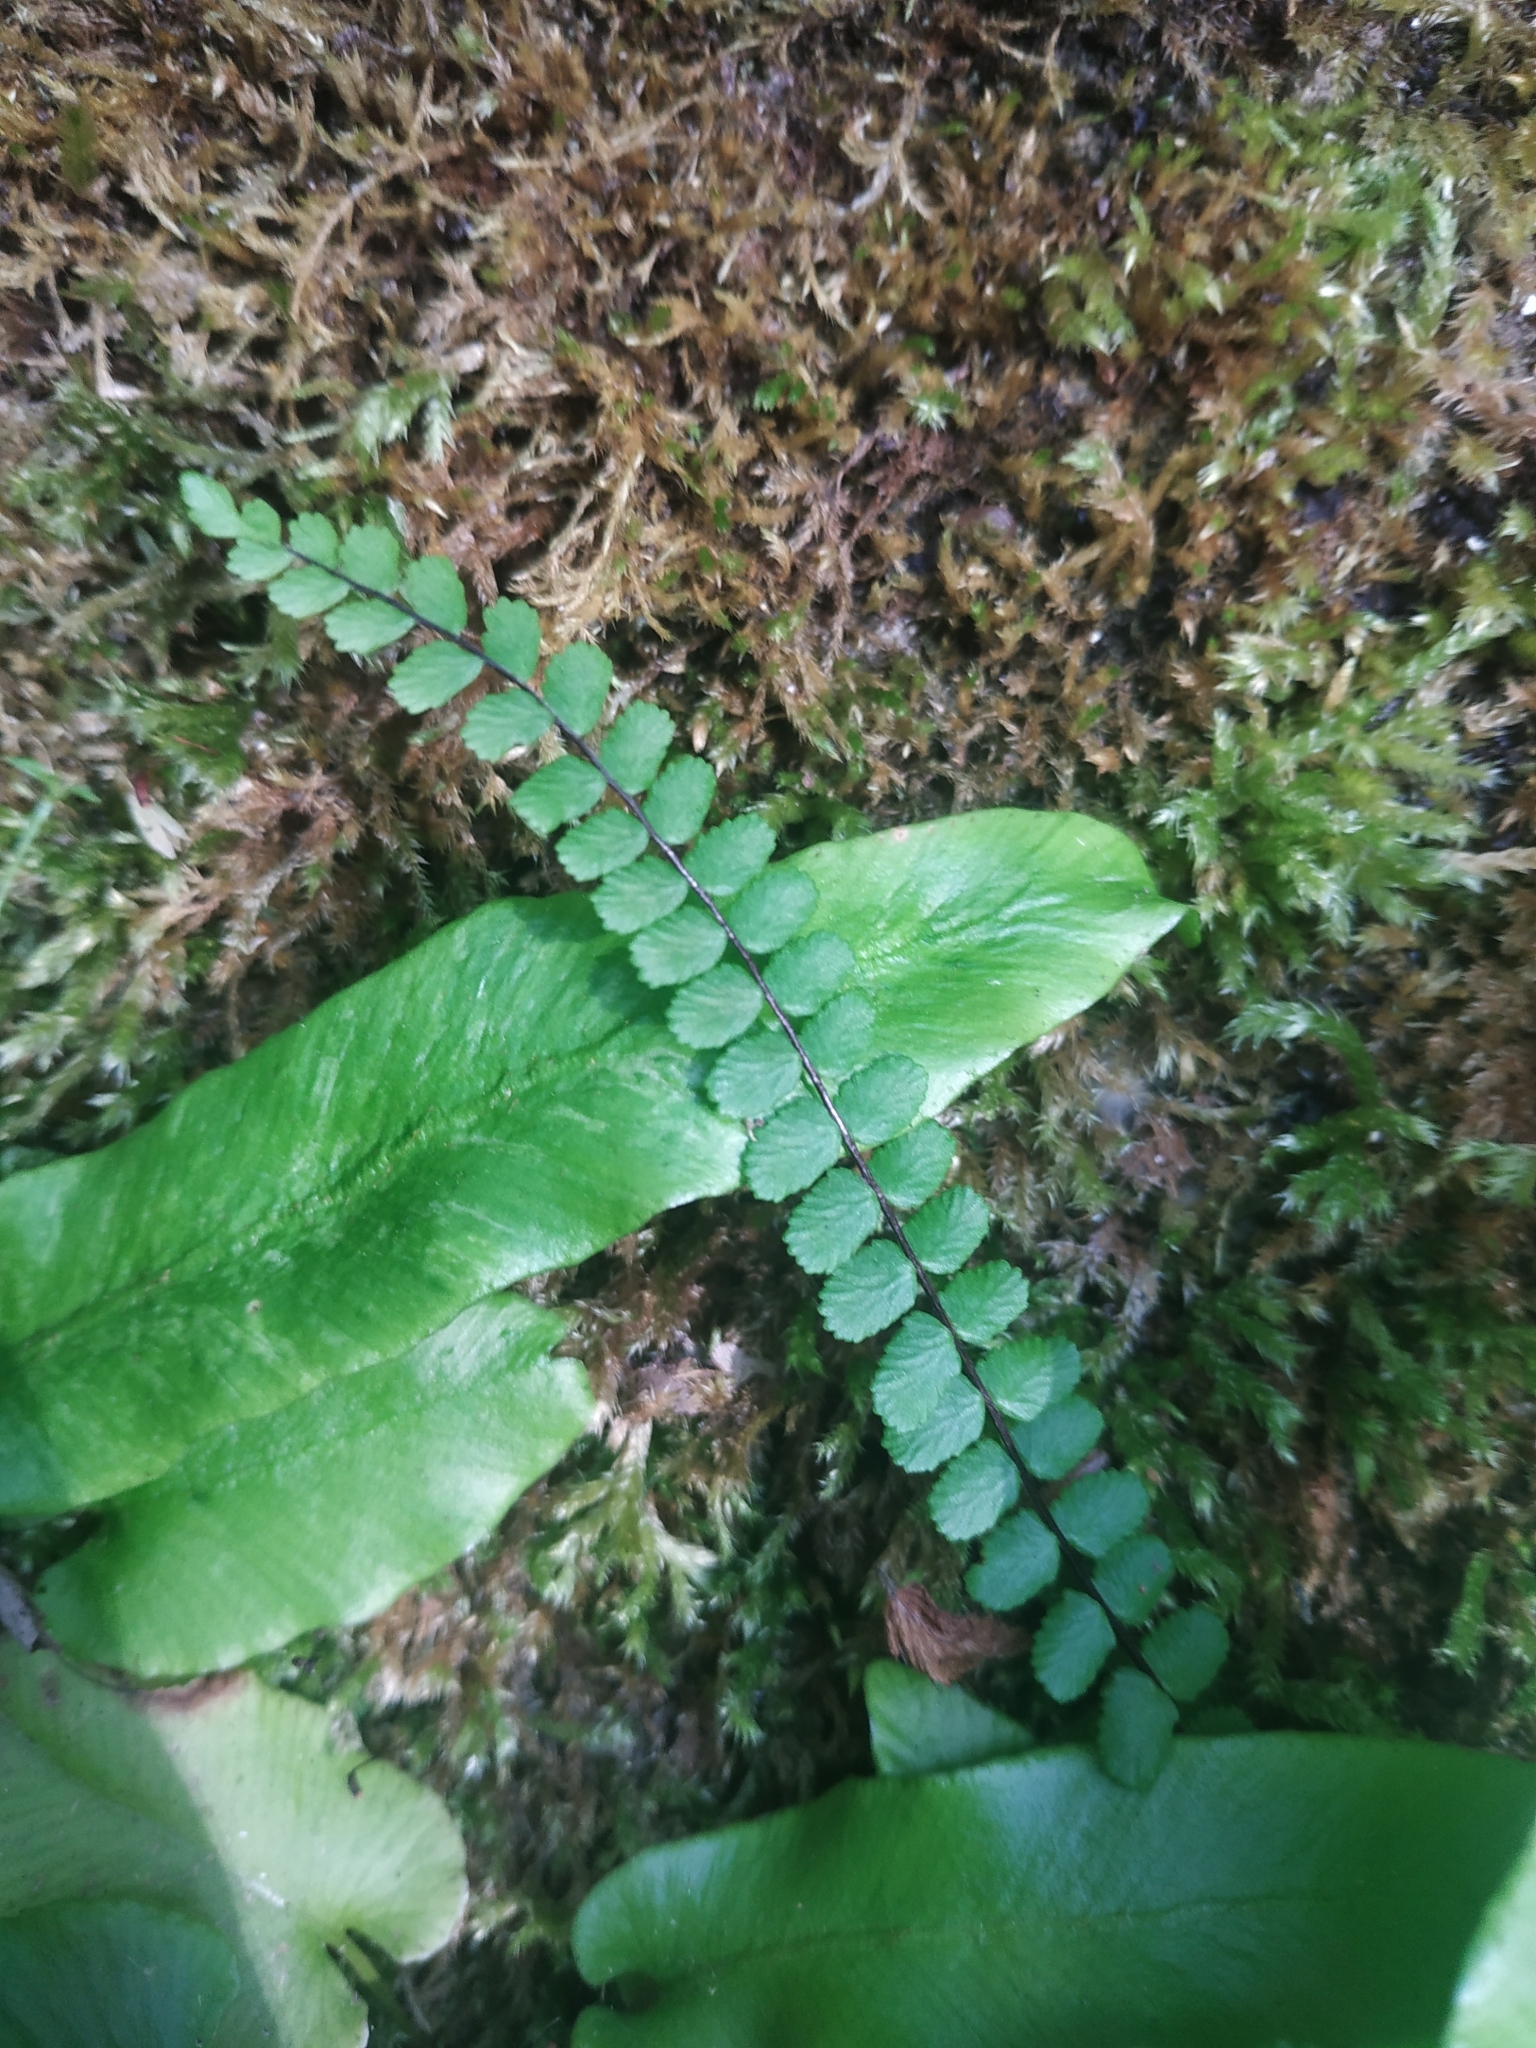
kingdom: Plantae
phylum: Tracheophyta
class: Polypodiopsida
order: Polypodiales
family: Aspleniaceae
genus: Asplenium
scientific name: Asplenium trichomanes
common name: Maidenhair spleenwort
